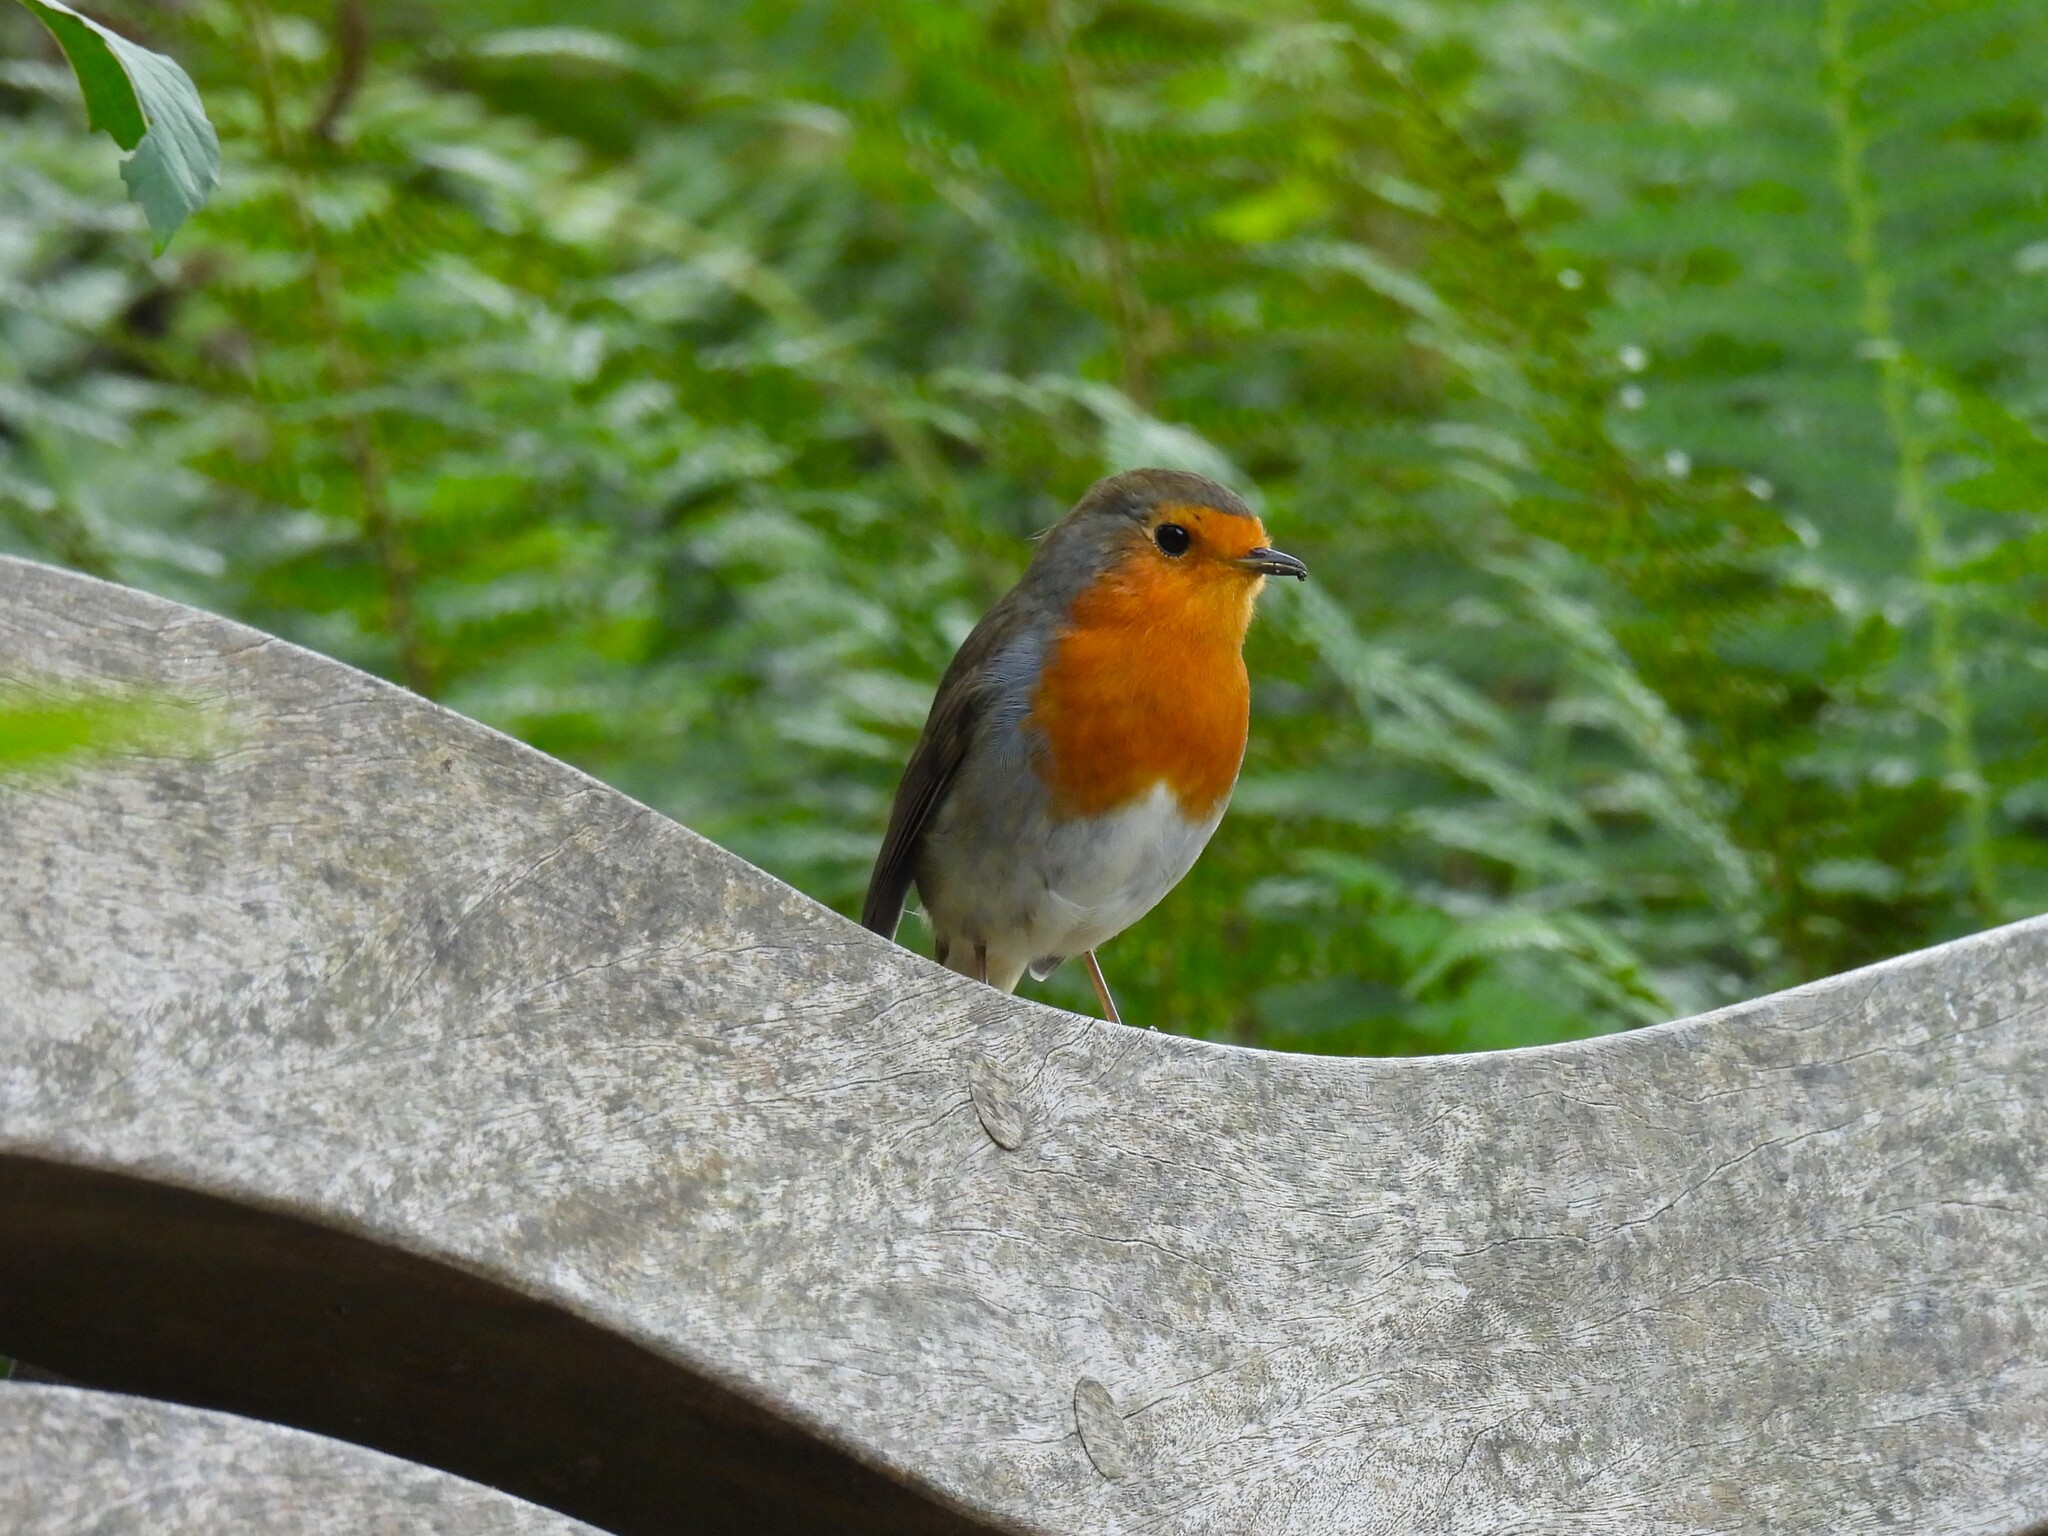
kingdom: Animalia
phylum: Chordata
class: Aves
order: Passeriformes
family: Muscicapidae
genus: Erithacus
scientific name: Erithacus rubecula
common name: European robin
